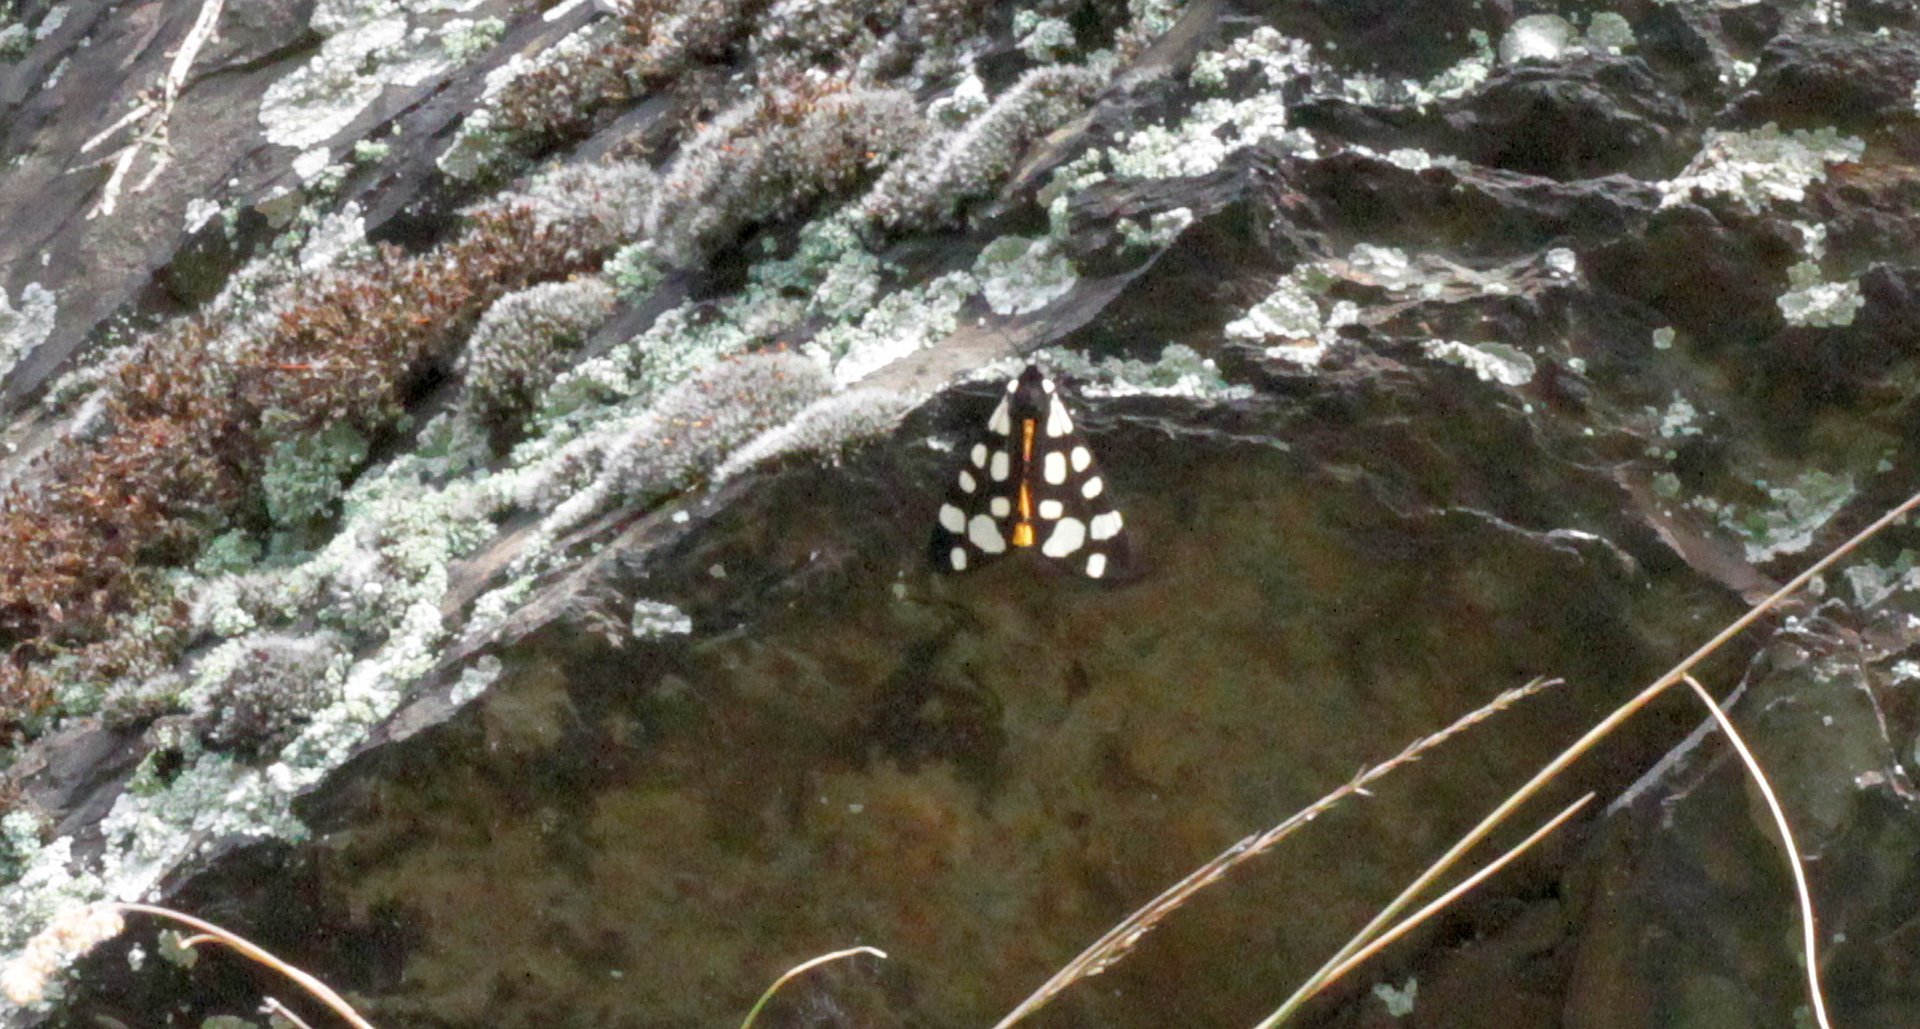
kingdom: Animalia
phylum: Arthropoda
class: Insecta
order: Lepidoptera
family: Erebidae
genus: Epicallia
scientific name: Epicallia villica
